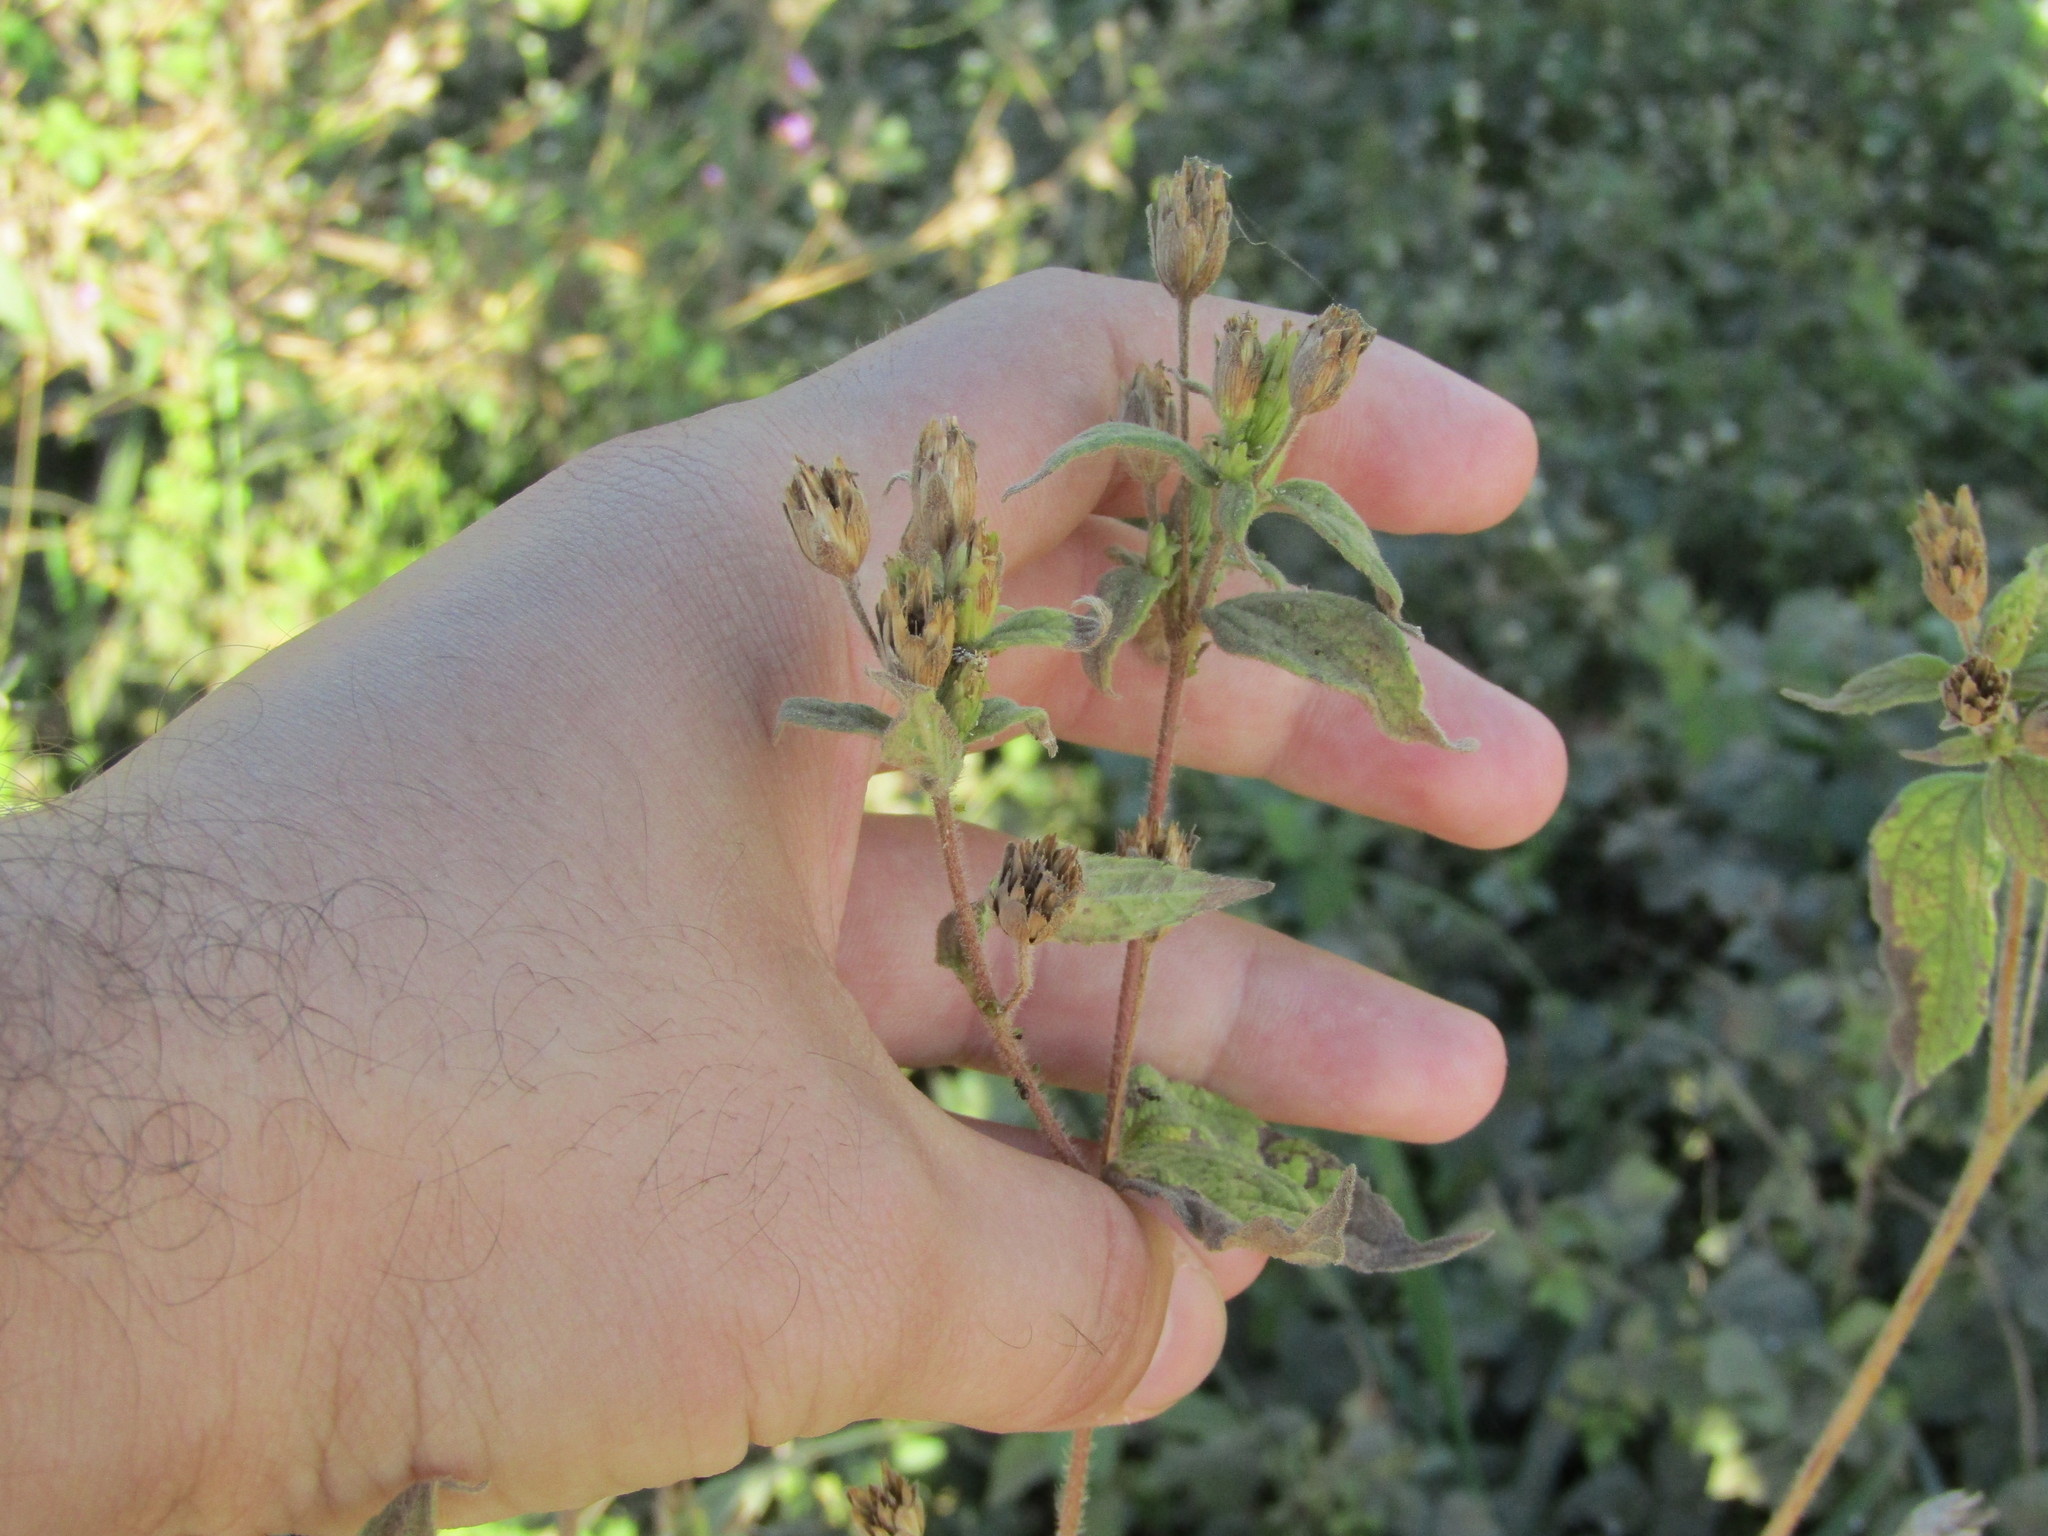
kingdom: Plantae
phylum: Tracheophyta
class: Magnoliopsida
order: Asterales
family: Asteraceae
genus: Blainvillea
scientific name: Blainvillea gayana
